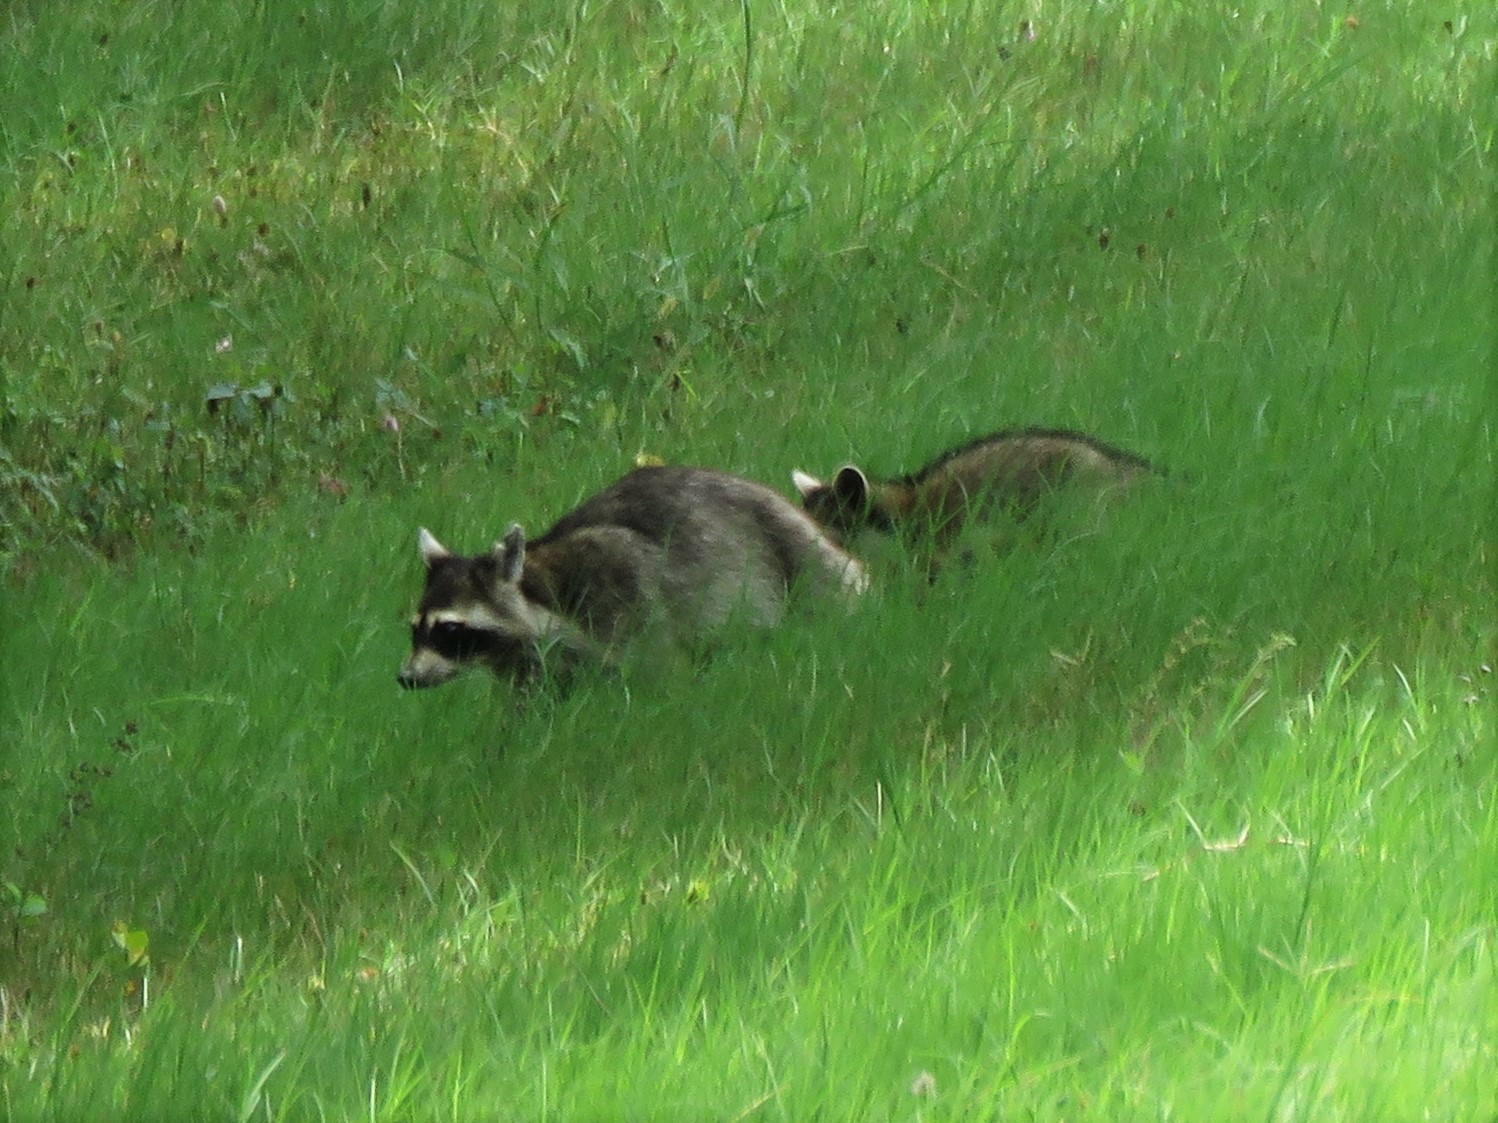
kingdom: Animalia
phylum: Chordata
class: Mammalia
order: Carnivora
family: Procyonidae
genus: Procyon
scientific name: Procyon lotor
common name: Raccoon
